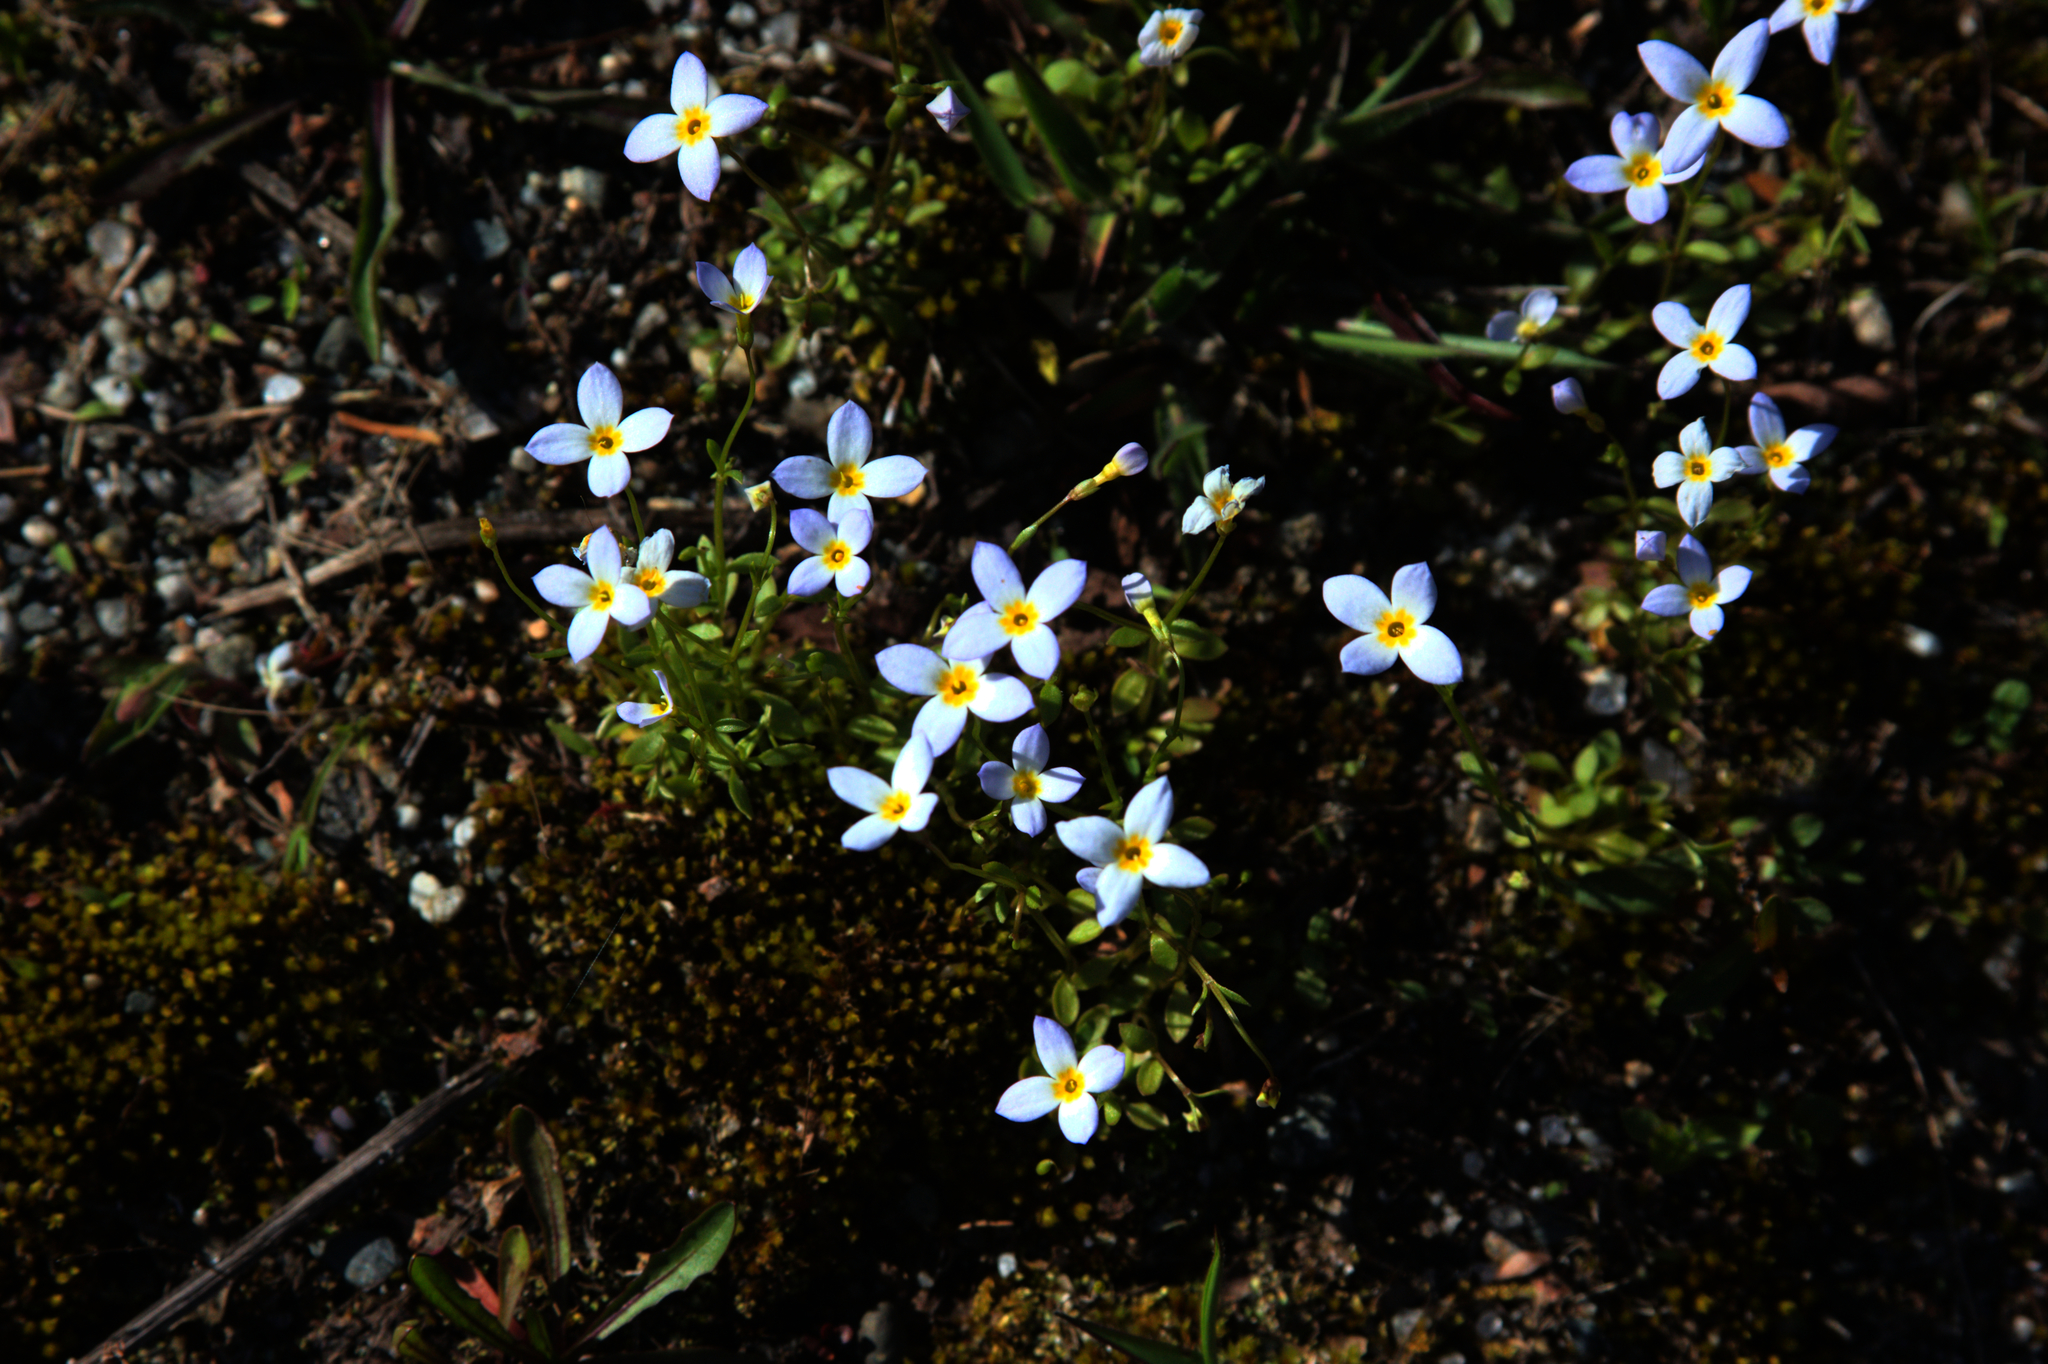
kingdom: Plantae
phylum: Tracheophyta
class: Magnoliopsida
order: Gentianales
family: Rubiaceae
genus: Houstonia
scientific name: Houstonia caerulea
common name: Bluets
